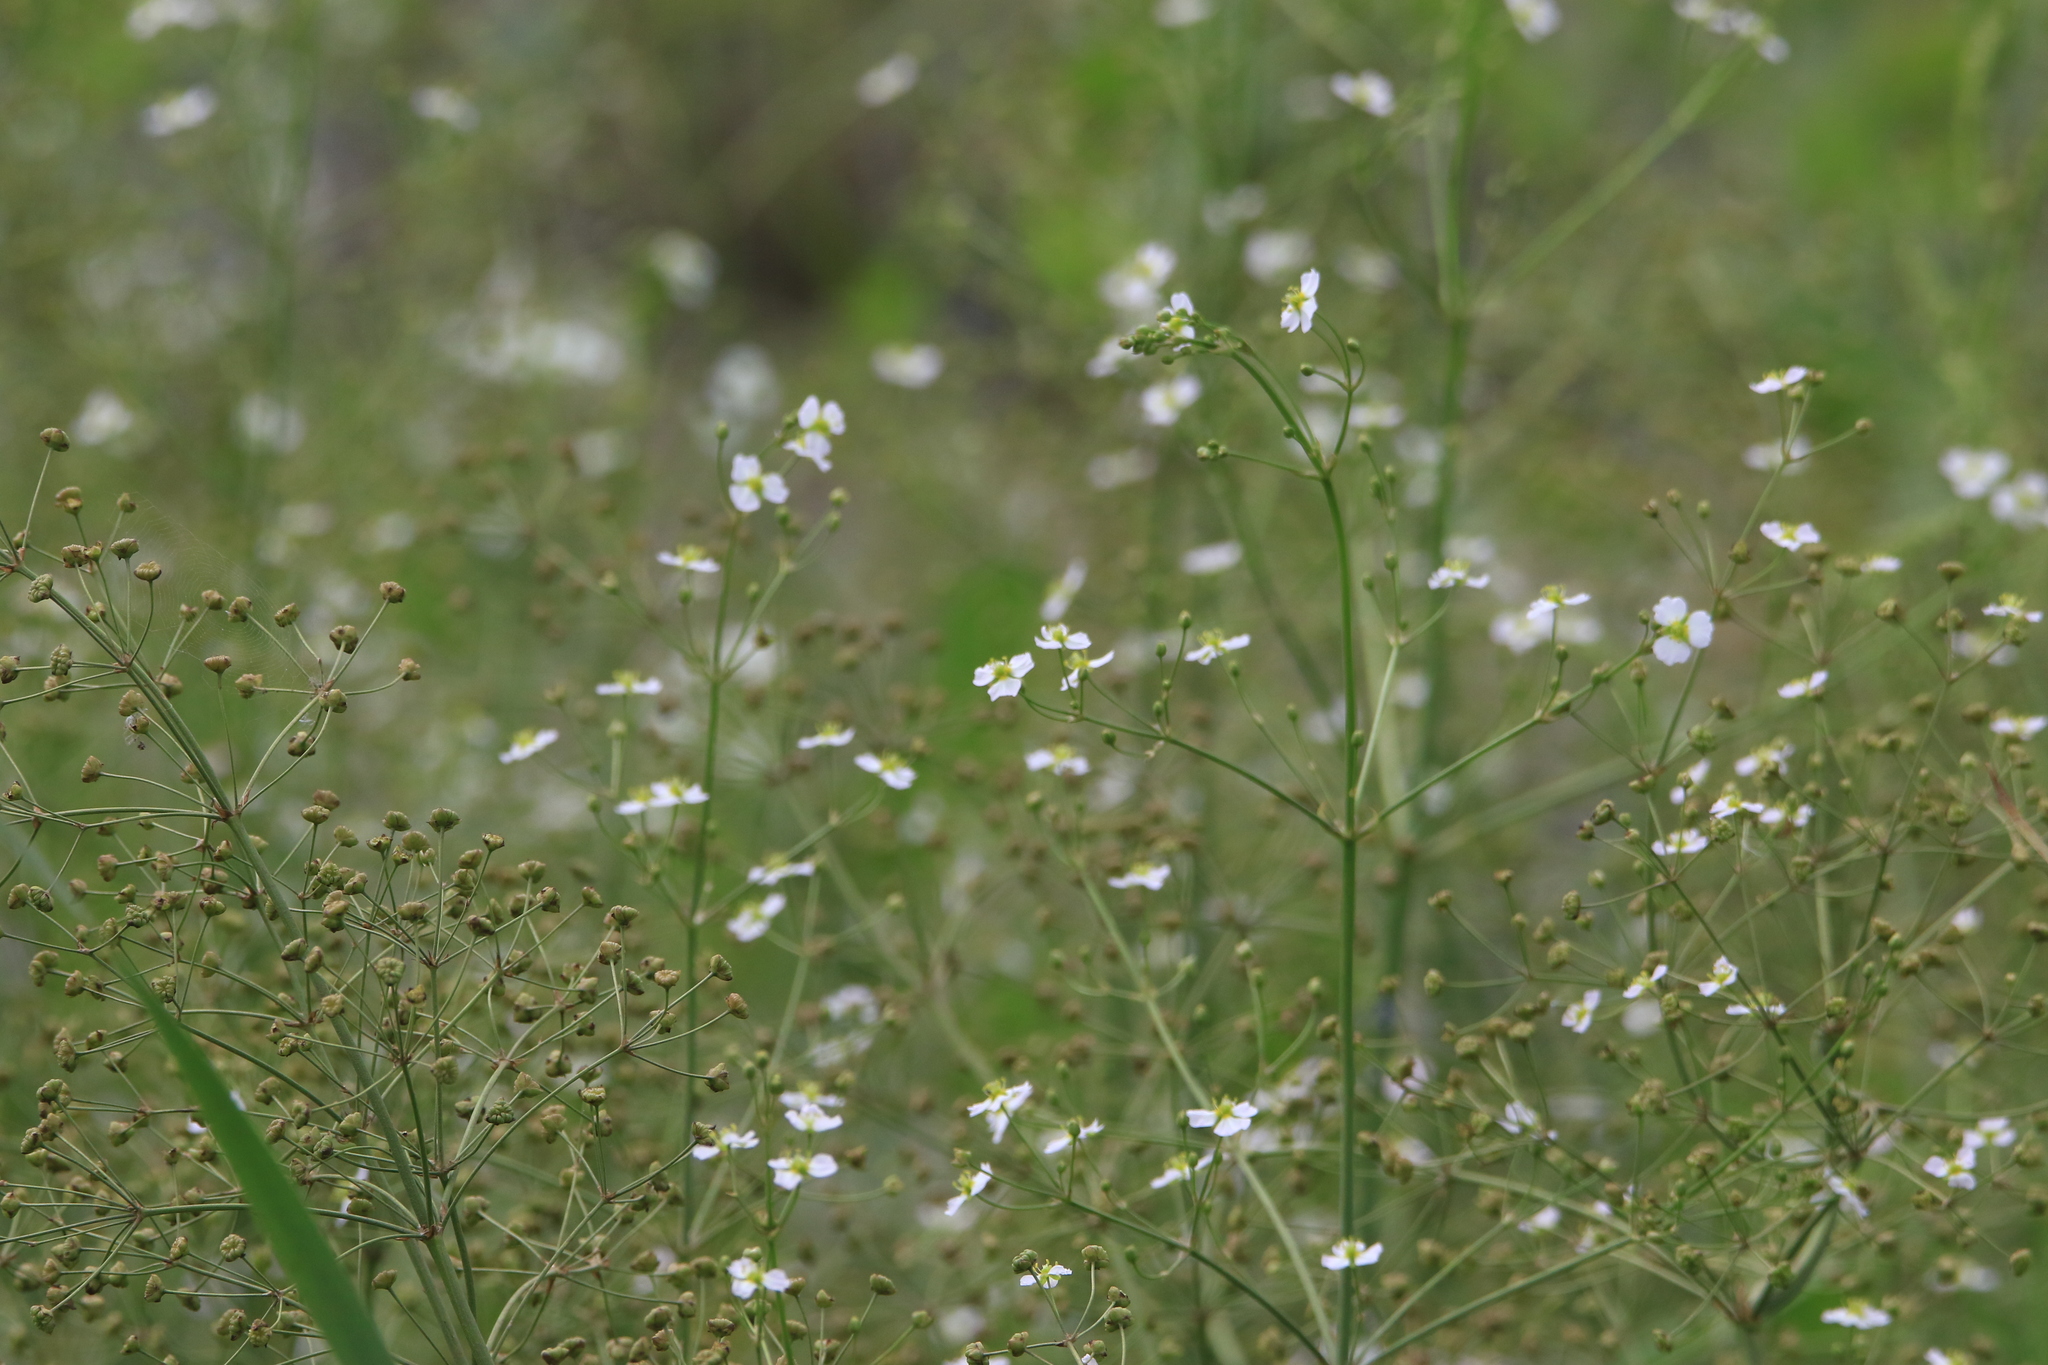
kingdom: Plantae
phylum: Tracheophyta
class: Liliopsida
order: Alismatales
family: Alismataceae
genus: Alisma
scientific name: Alisma plantago-aquatica
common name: Water-plantain
